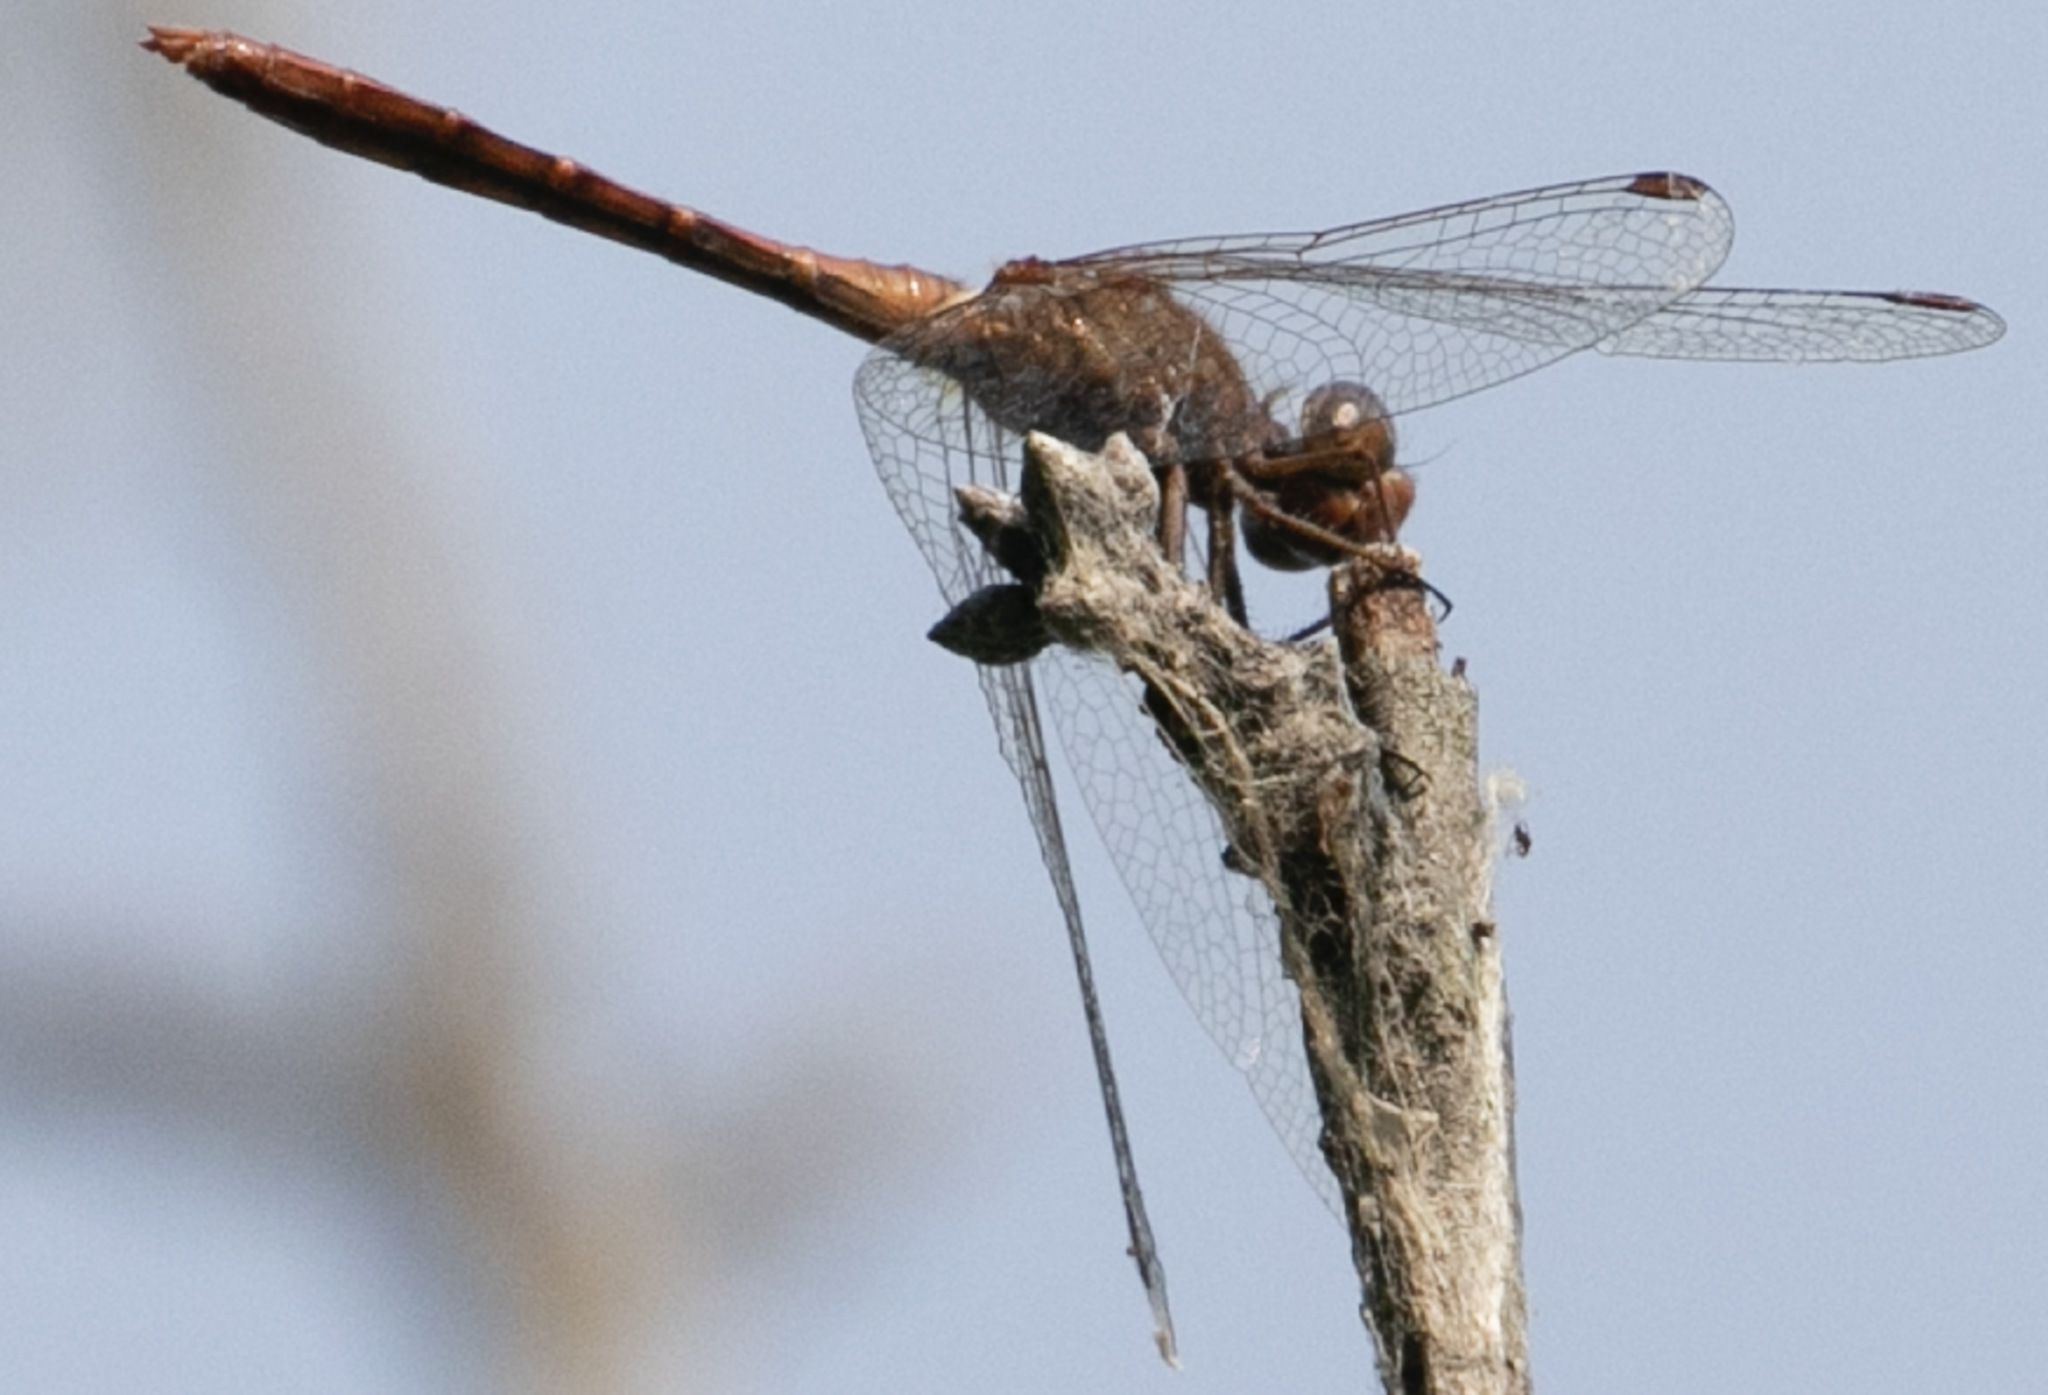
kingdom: Animalia
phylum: Arthropoda
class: Insecta
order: Odonata
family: Libellulidae
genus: Sympetrum
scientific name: Sympetrum meridionale
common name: Southern darter
